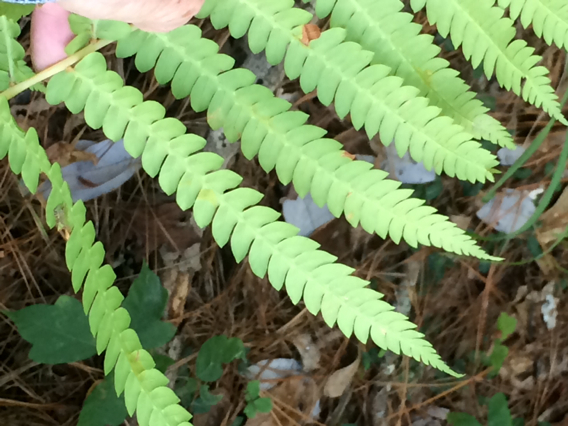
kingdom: Plantae
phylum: Tracheophyta
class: Polypodiopsida
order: Osmundales
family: Osmundaceae
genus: Osmundastrum
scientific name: Osmundastrum cinnamomeum
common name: Cinnamon fern
